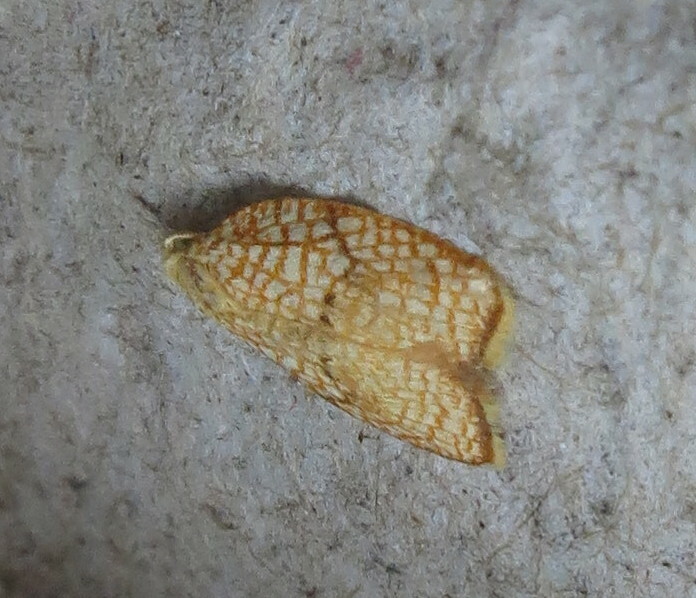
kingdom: Animalia
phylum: Arthropoda
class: Insecta
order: Lepidoptera
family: Tortricidae
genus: Acleris
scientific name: Acleris forsskaleana
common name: Maple button
